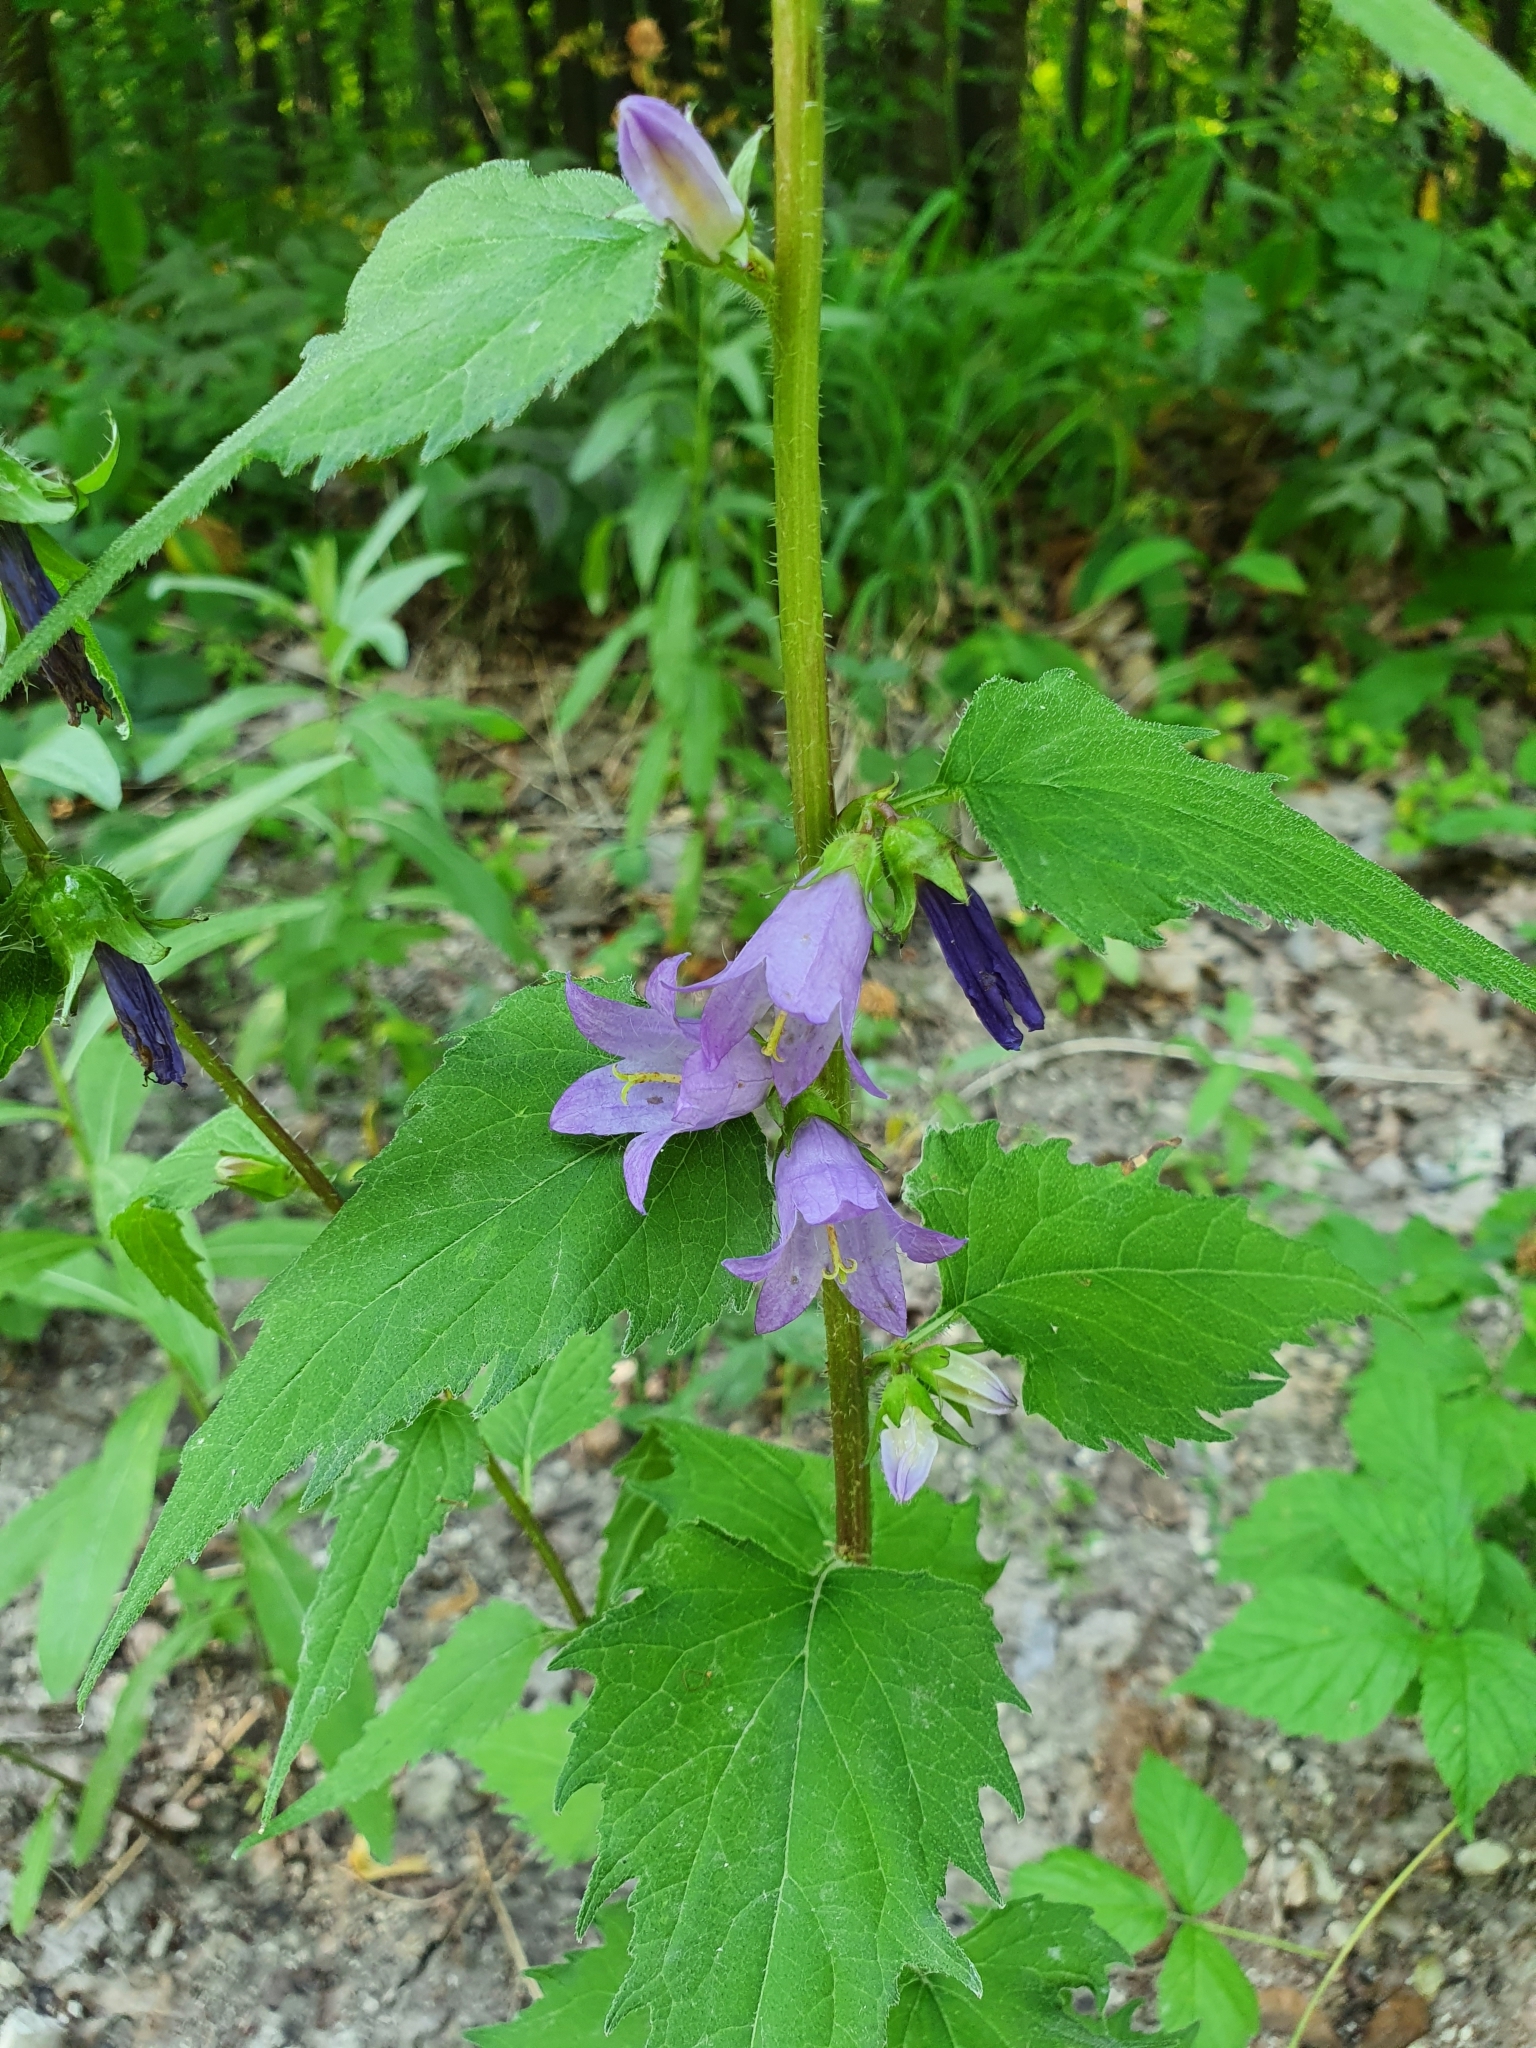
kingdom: Plantae
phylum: Tracheophyta
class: Magnoliopsida
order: Asterales
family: Campanulaceae
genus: Campanula
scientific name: Campanula trachelium
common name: Nettle-leaved bellflower
